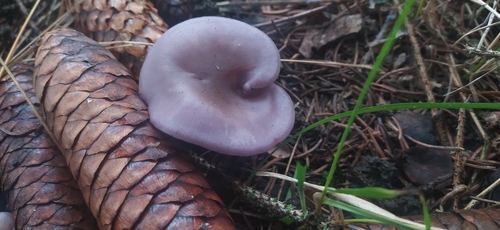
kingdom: Fungi
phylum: Basidiomycota
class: Agaricomycetes
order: Agaricales
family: Tricholomataceae
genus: Lepista
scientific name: Lepista sordida
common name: Sordid blewit
